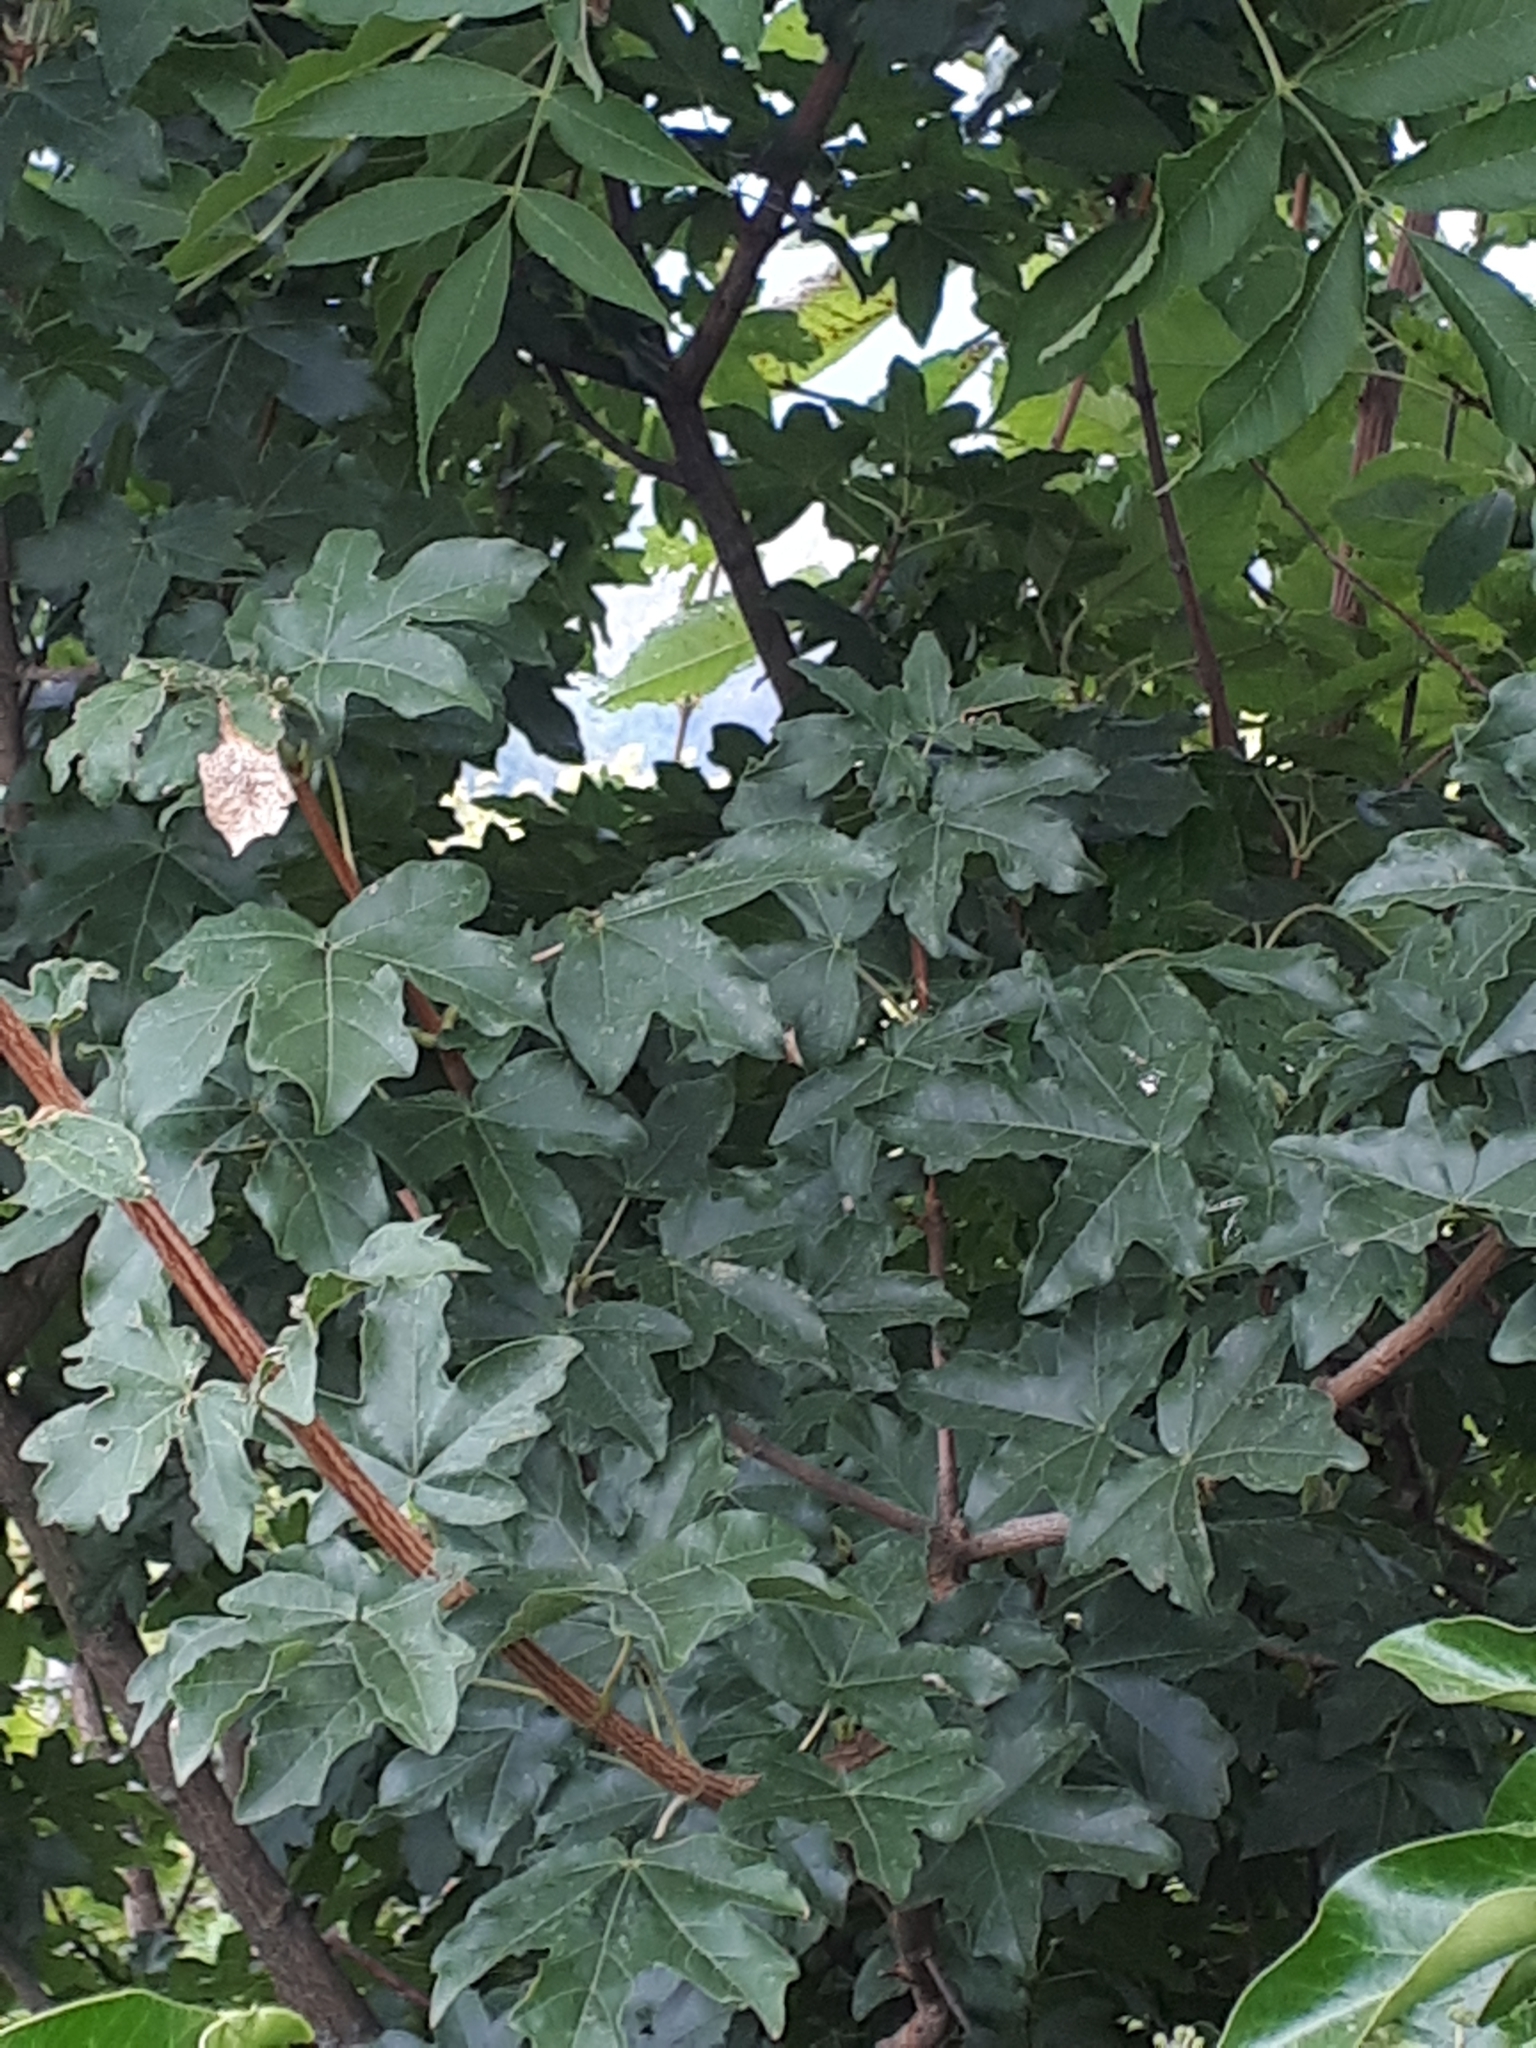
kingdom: Plantae
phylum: Tracheophyta
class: Magnoliopsida
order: Sapindales
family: Sapindaceae
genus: Acer
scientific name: Acer campestre
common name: Field maple
